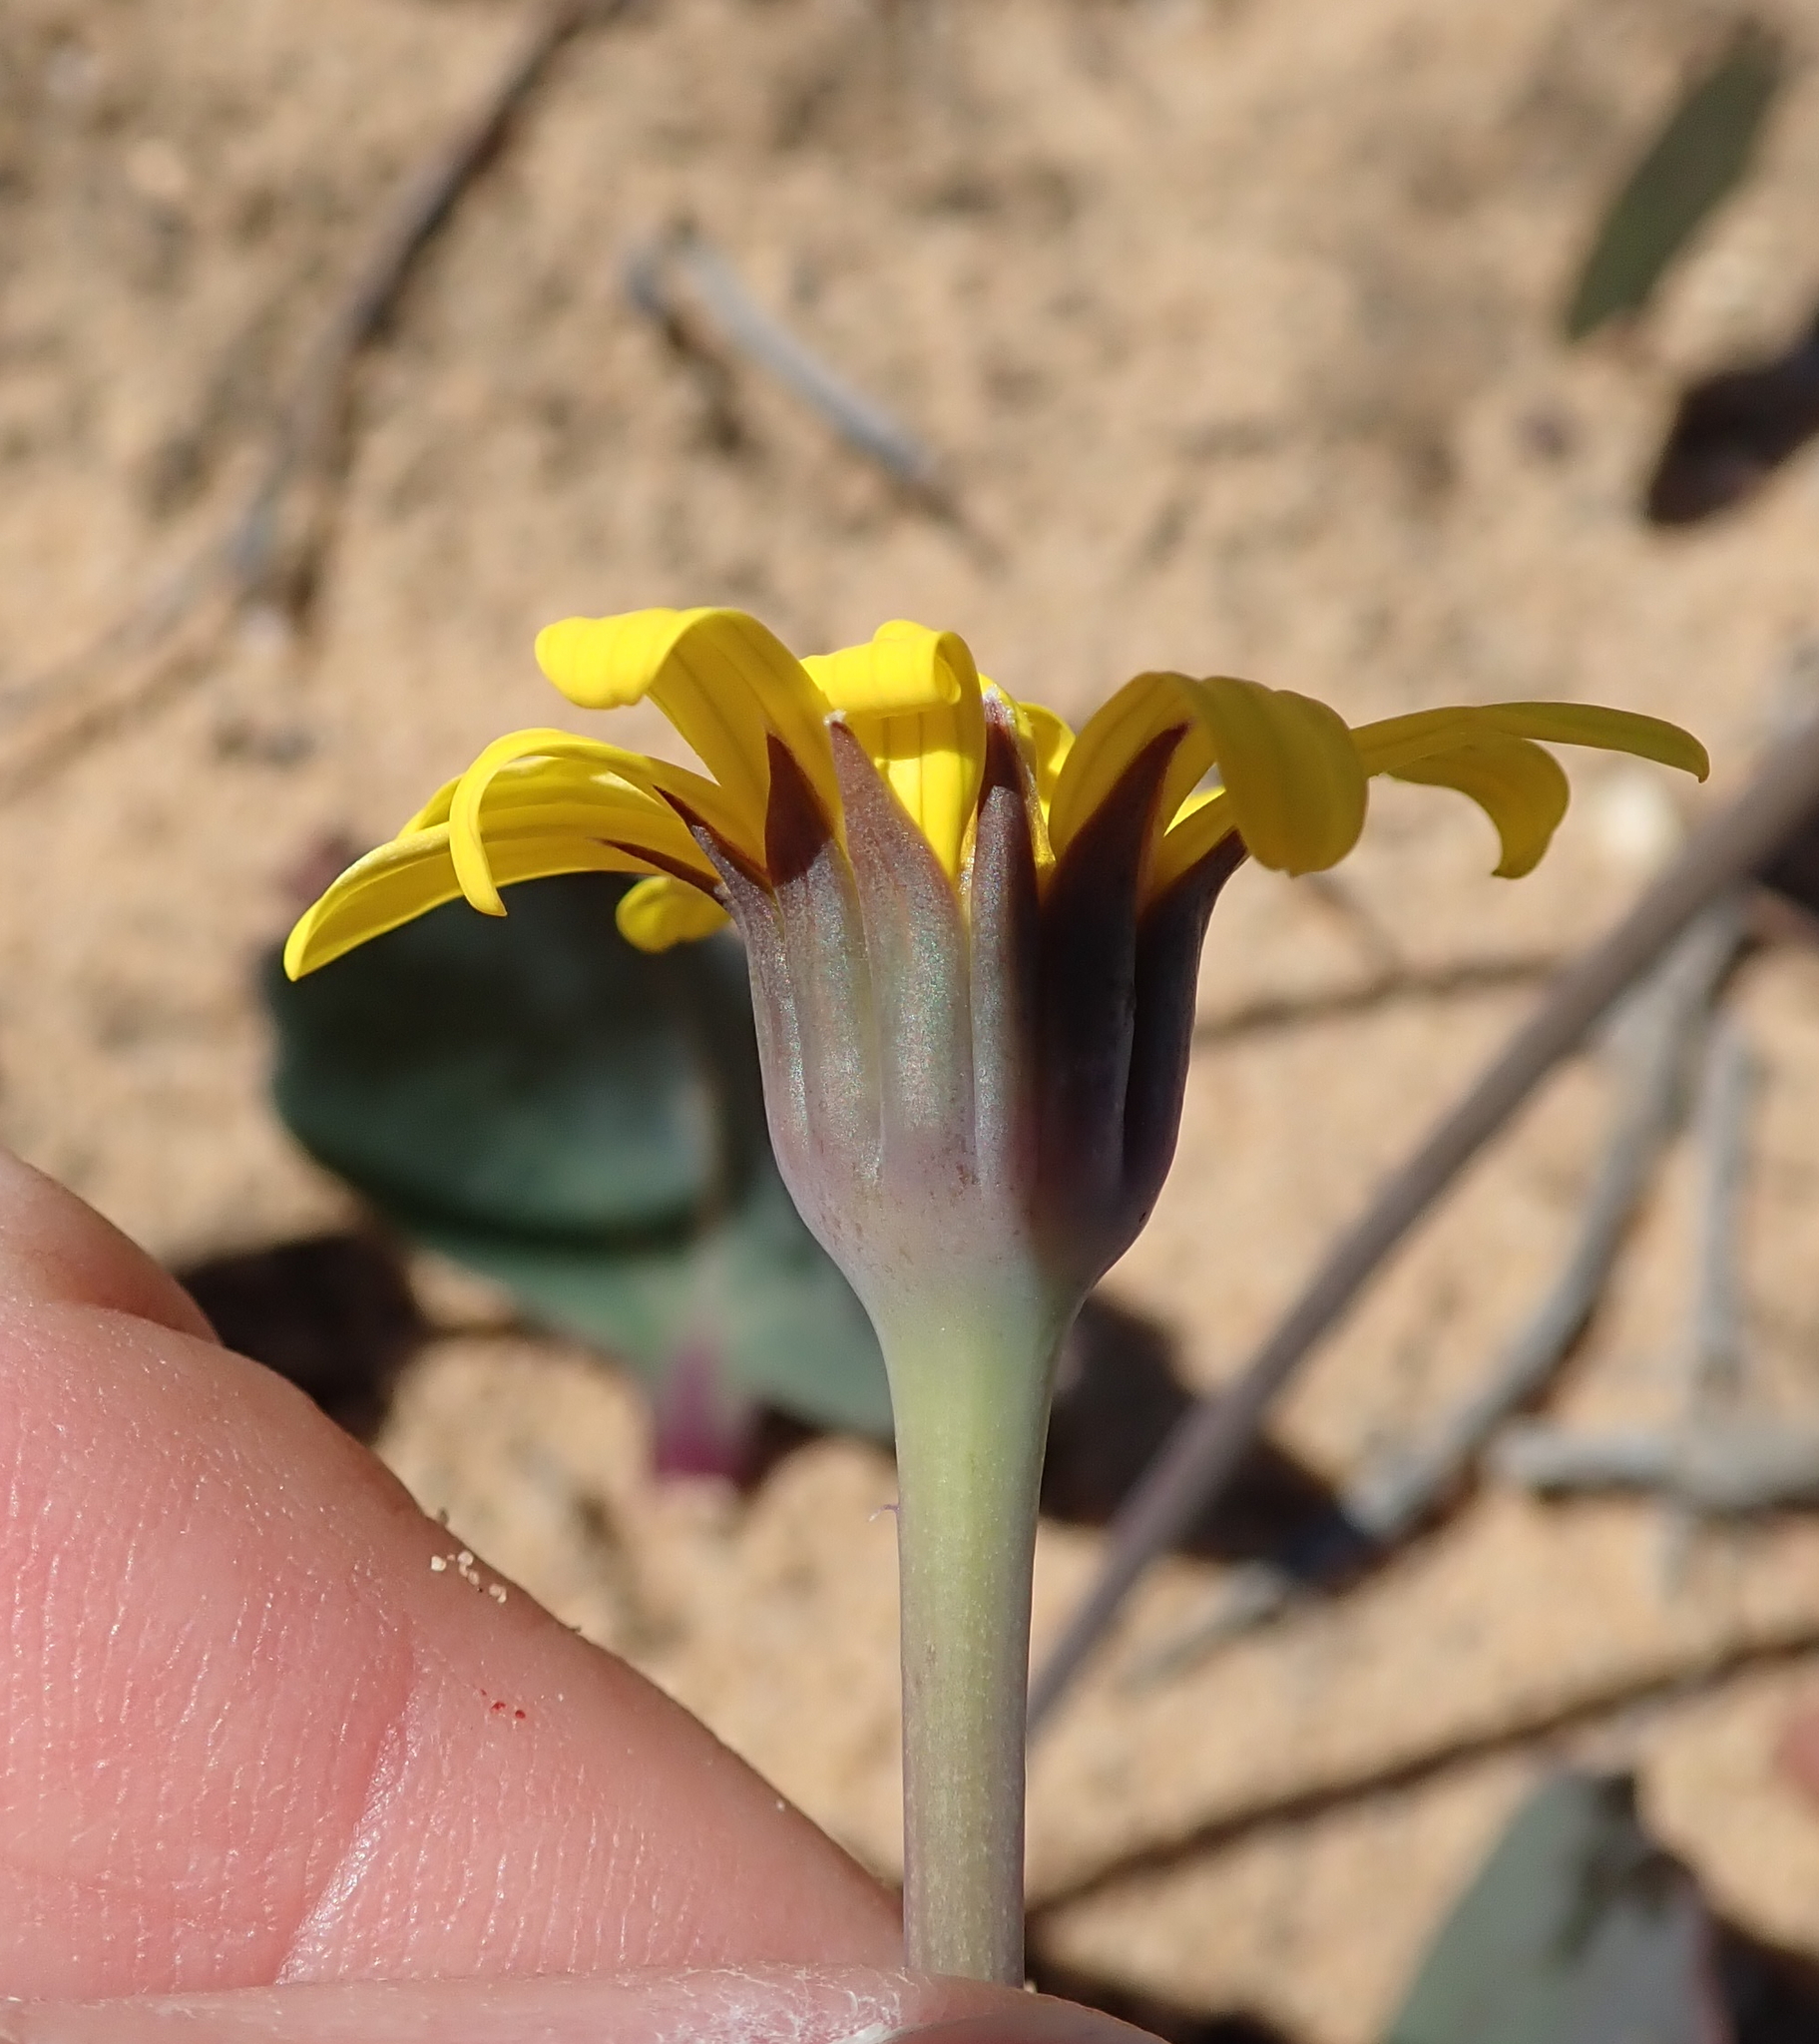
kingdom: Plantae
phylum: Tracheophyta
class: Magnoliopsida
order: Asterales
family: Asteraceae
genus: Othonna
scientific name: Othonna hederifolia
